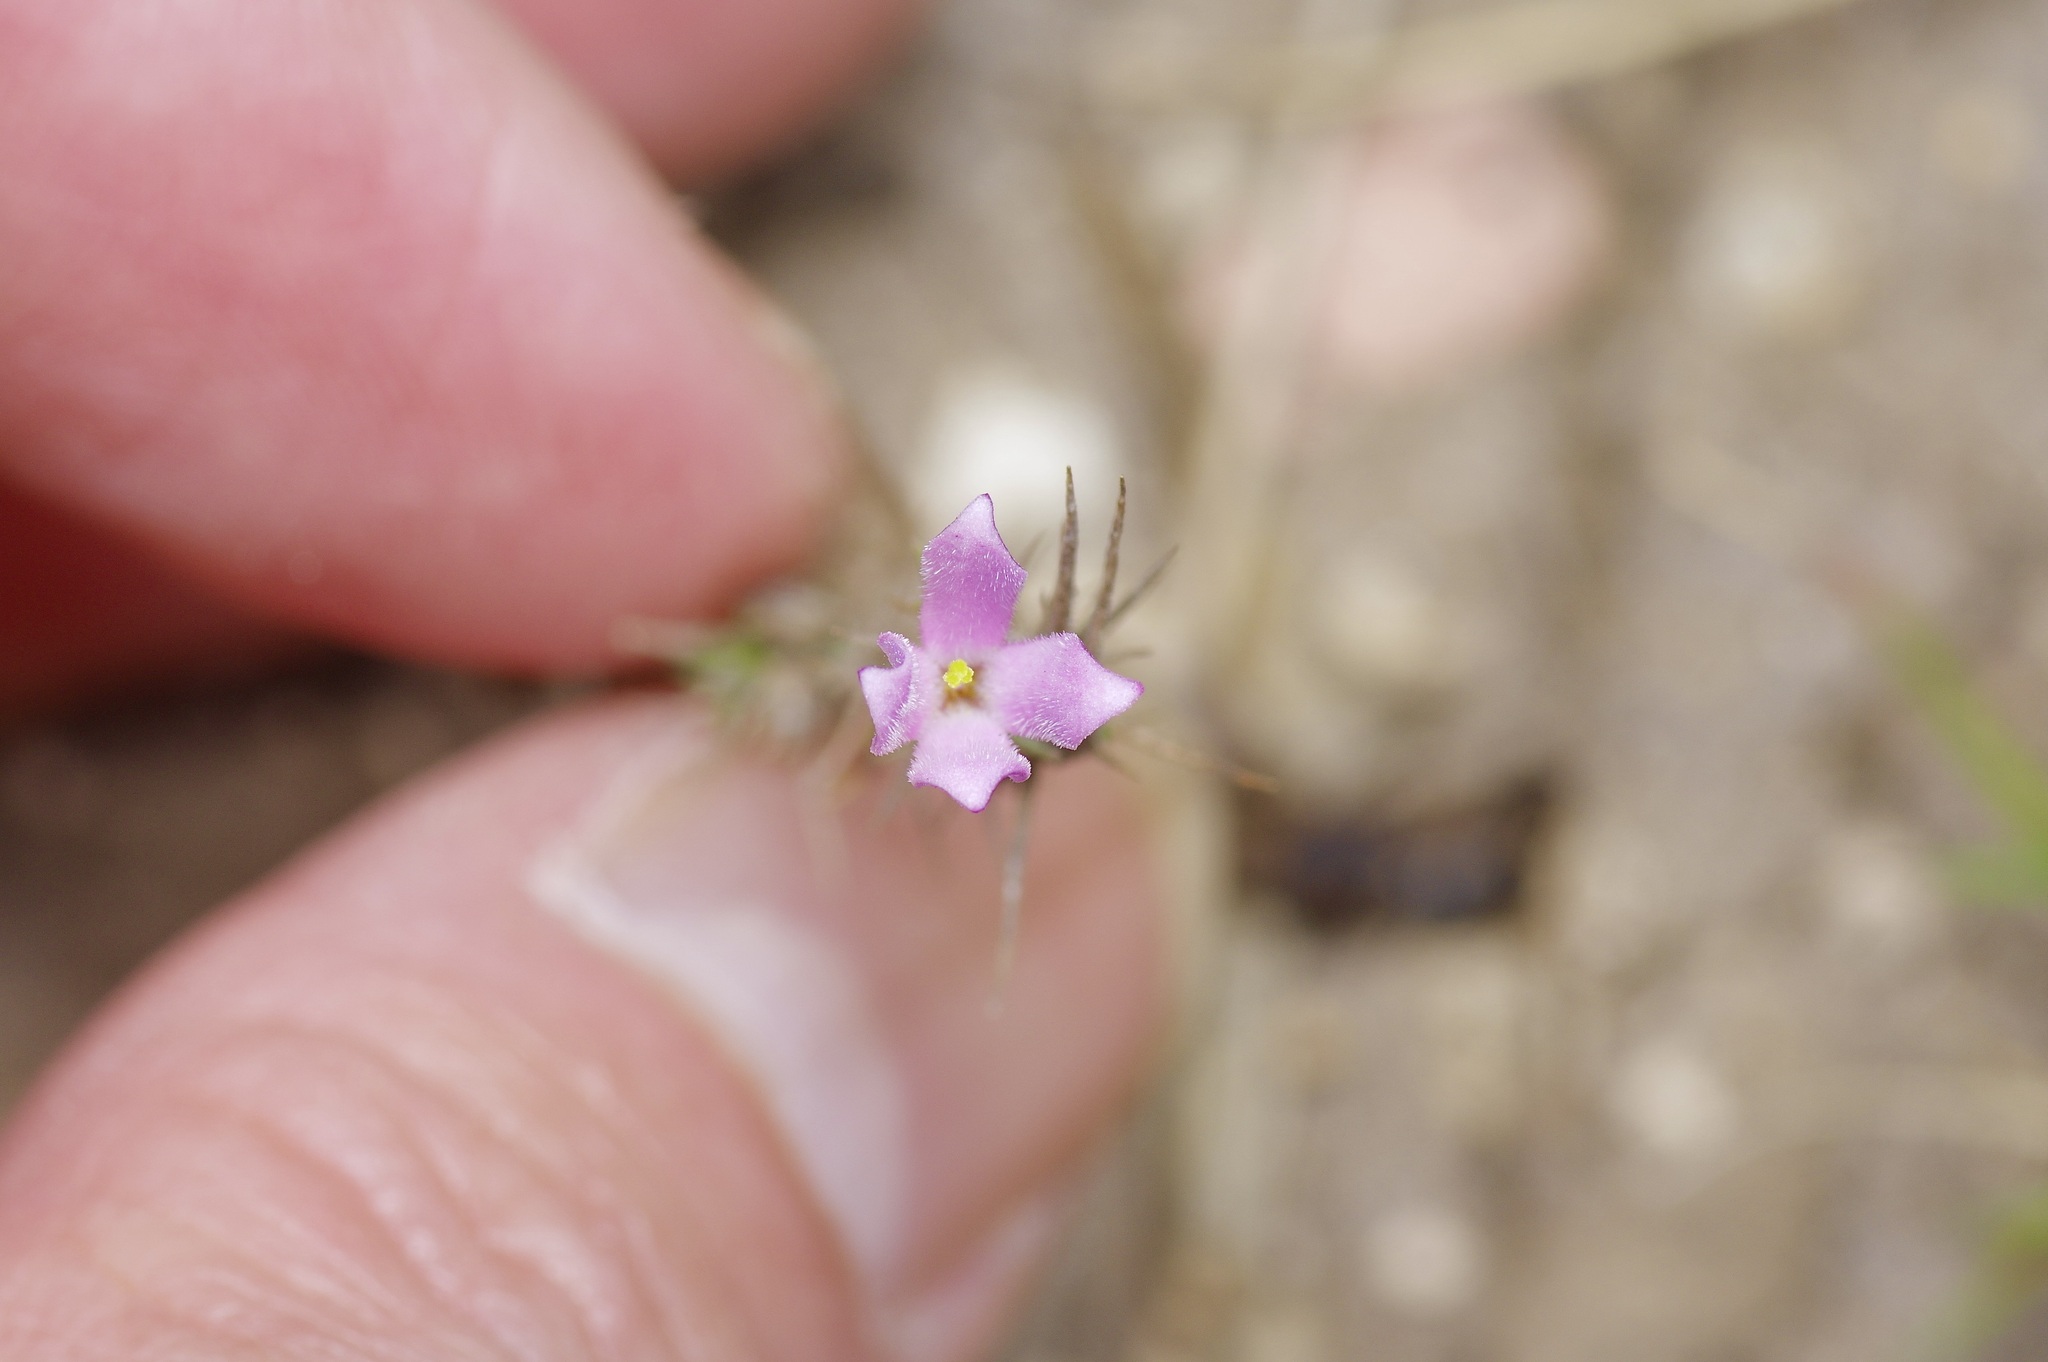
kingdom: Plantae
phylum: Tracheophyta
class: Magnoliopsida
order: Gentianales
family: Rubiaceae
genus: Houstonia
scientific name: Houstonia acerosa
